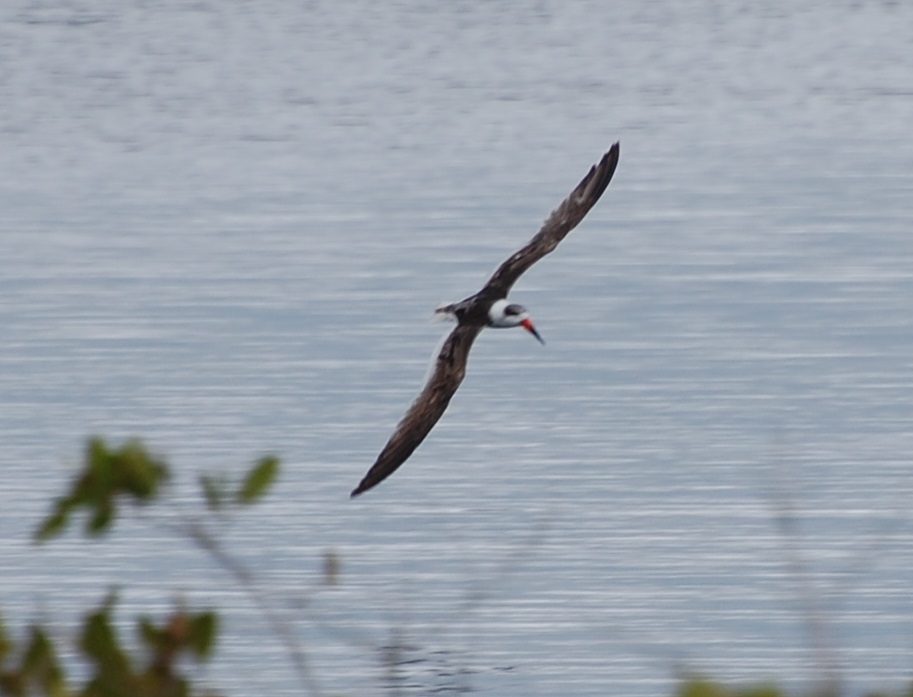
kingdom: Animalia
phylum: Chordata
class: Aves
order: Charadriiformes
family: Laridae
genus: Rynchops
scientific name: Rynchops niger
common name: Black skimmer
